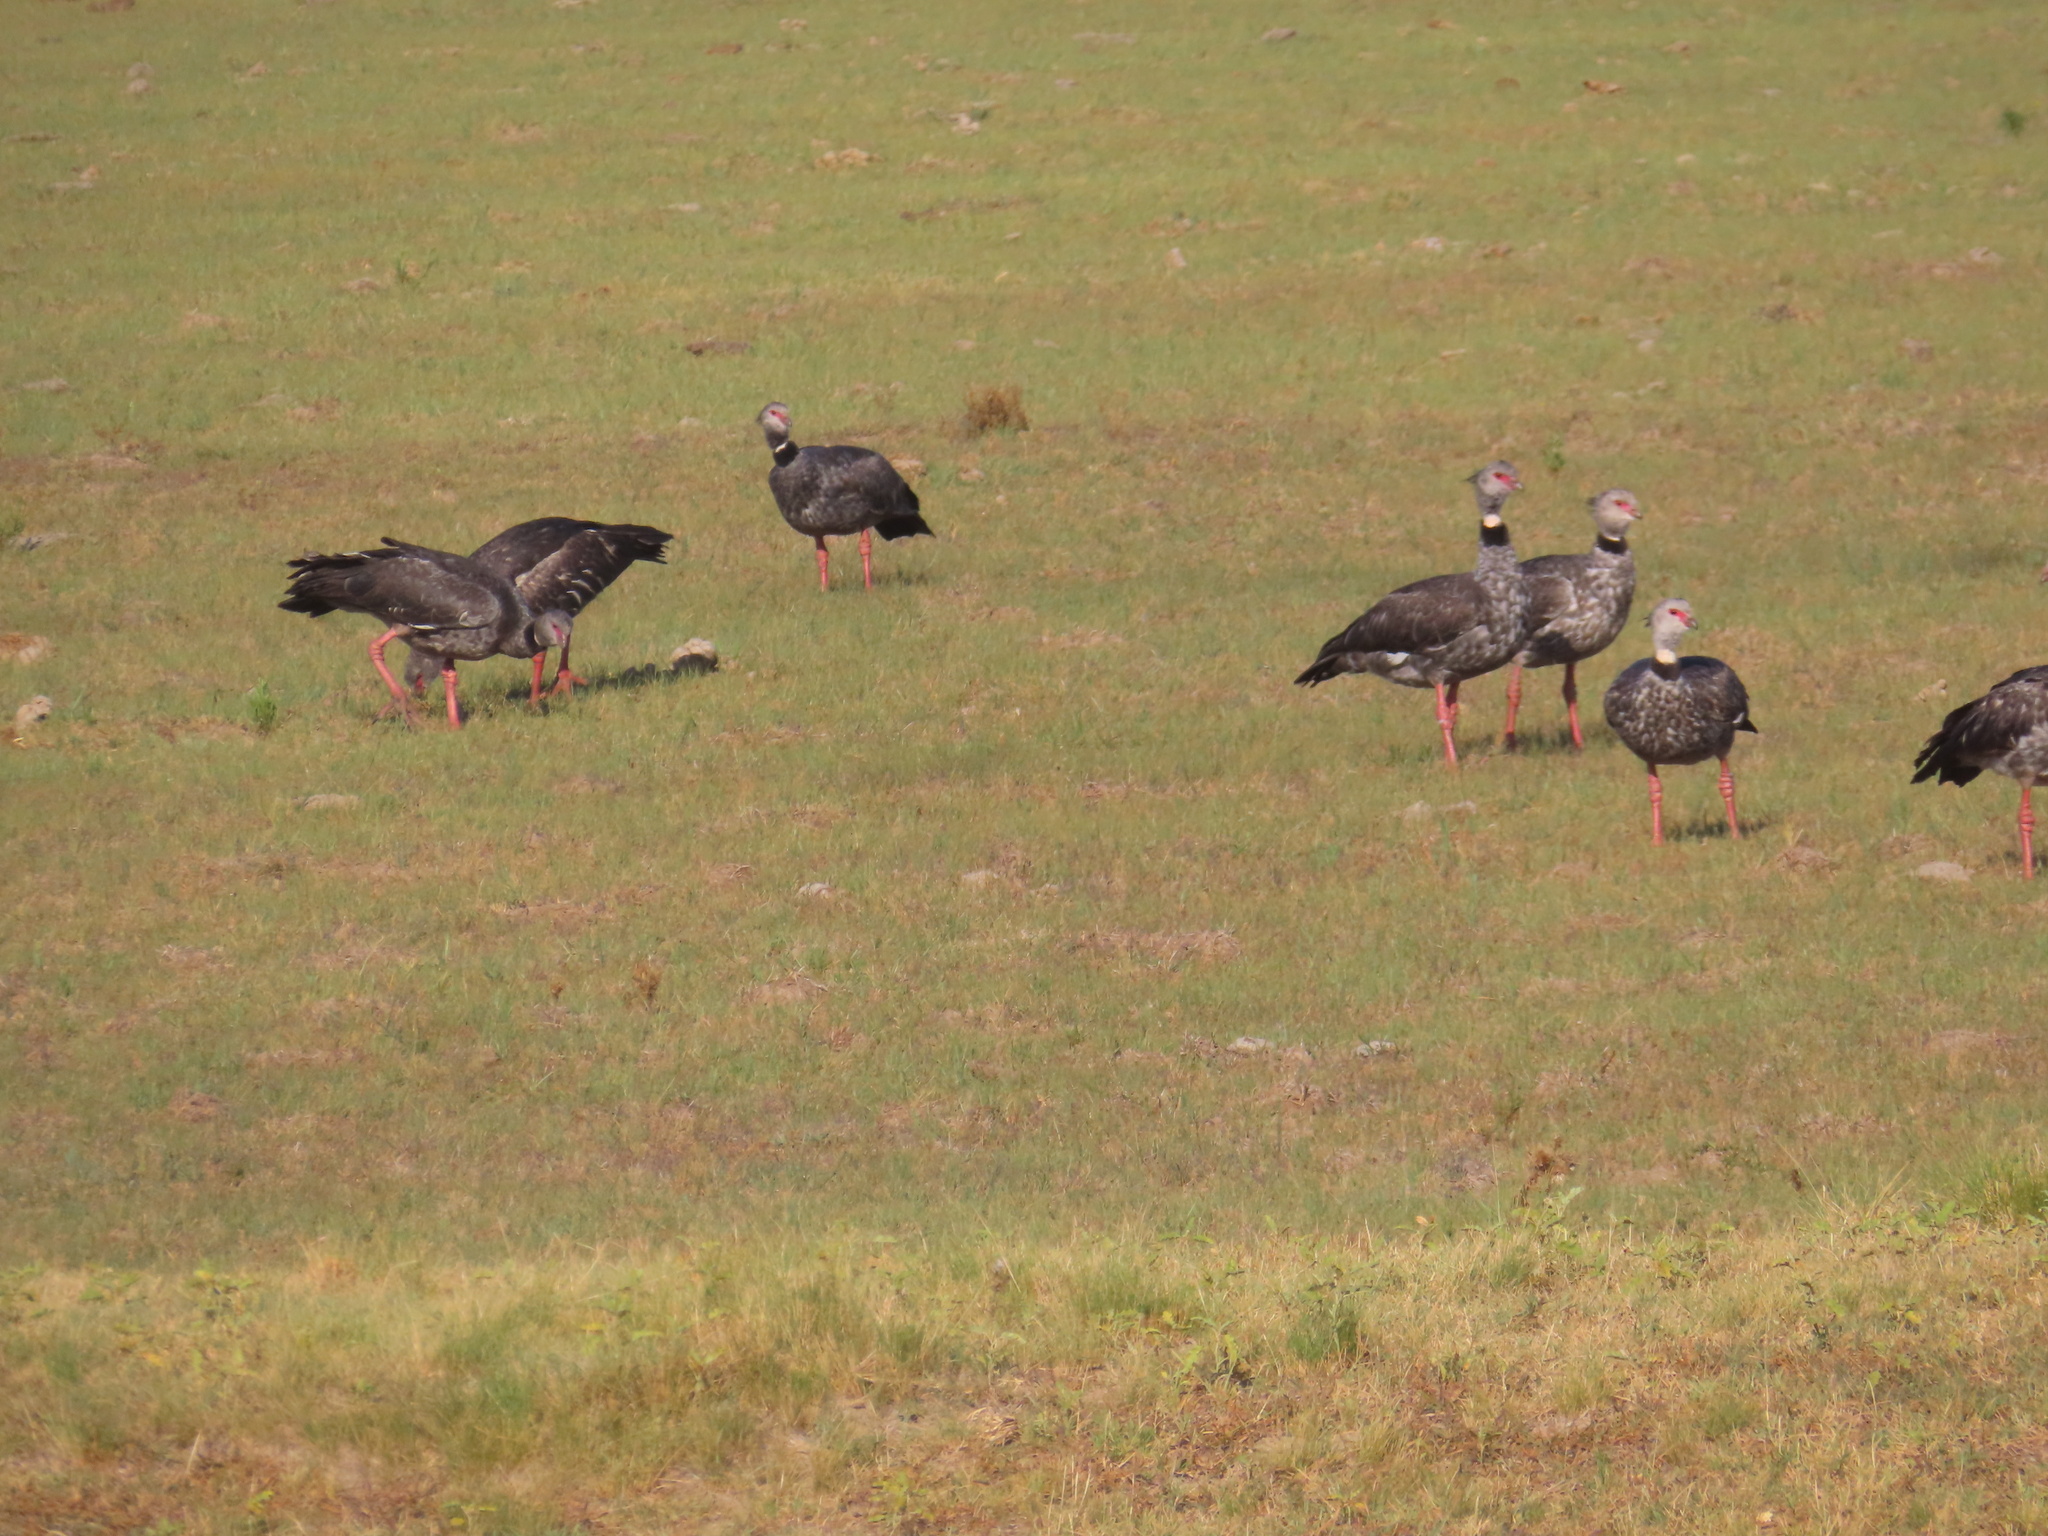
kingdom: Animalia
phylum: Chordata
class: Aves
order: Anseriformes
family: Anhimidae
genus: Chauna
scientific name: Chauna torquata
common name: Southern screamer
